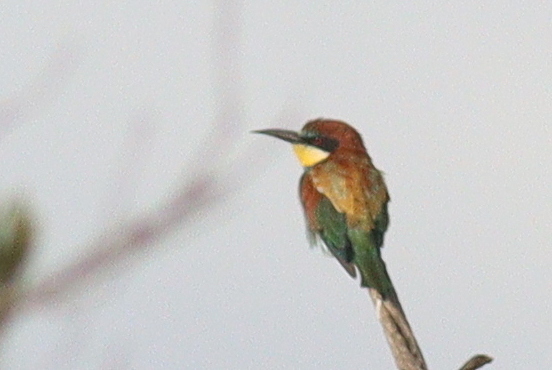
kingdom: Animalia
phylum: Chordata
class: Aves
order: Coraciiformes
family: Meropidae
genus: Merops
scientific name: Merops apiaster
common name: European bee-eater
